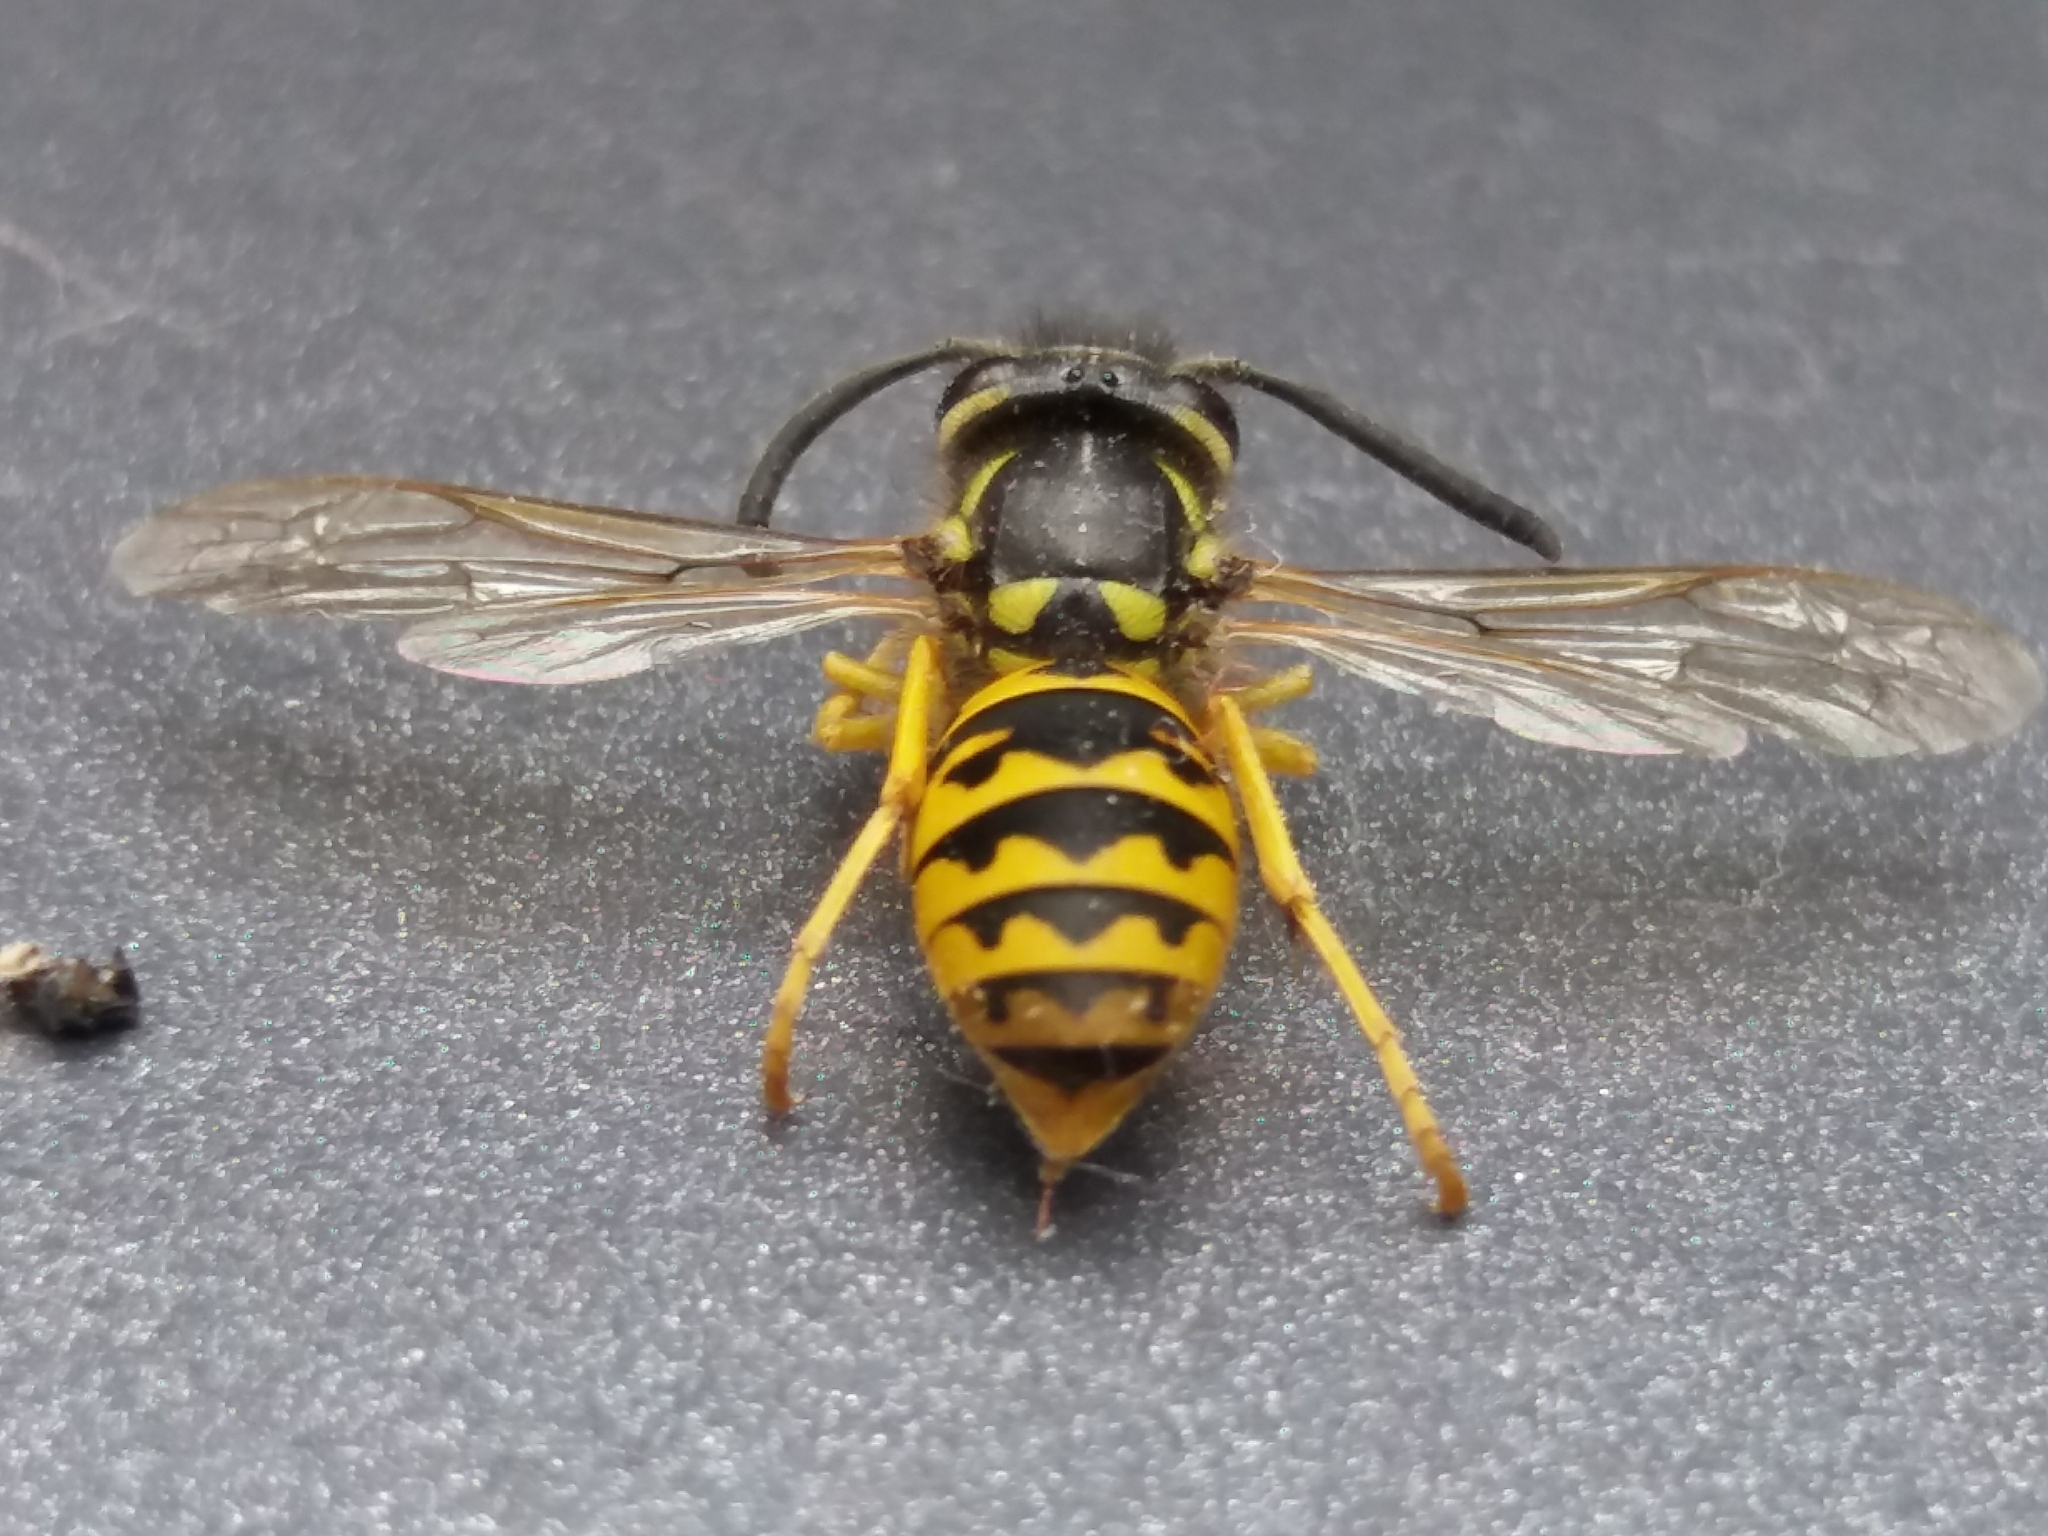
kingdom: Animalia
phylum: Arthropoda
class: Insecta
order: Hymenoptera
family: Vespidae
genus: Vespula
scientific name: Vespula vulgaris
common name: Common wasp
